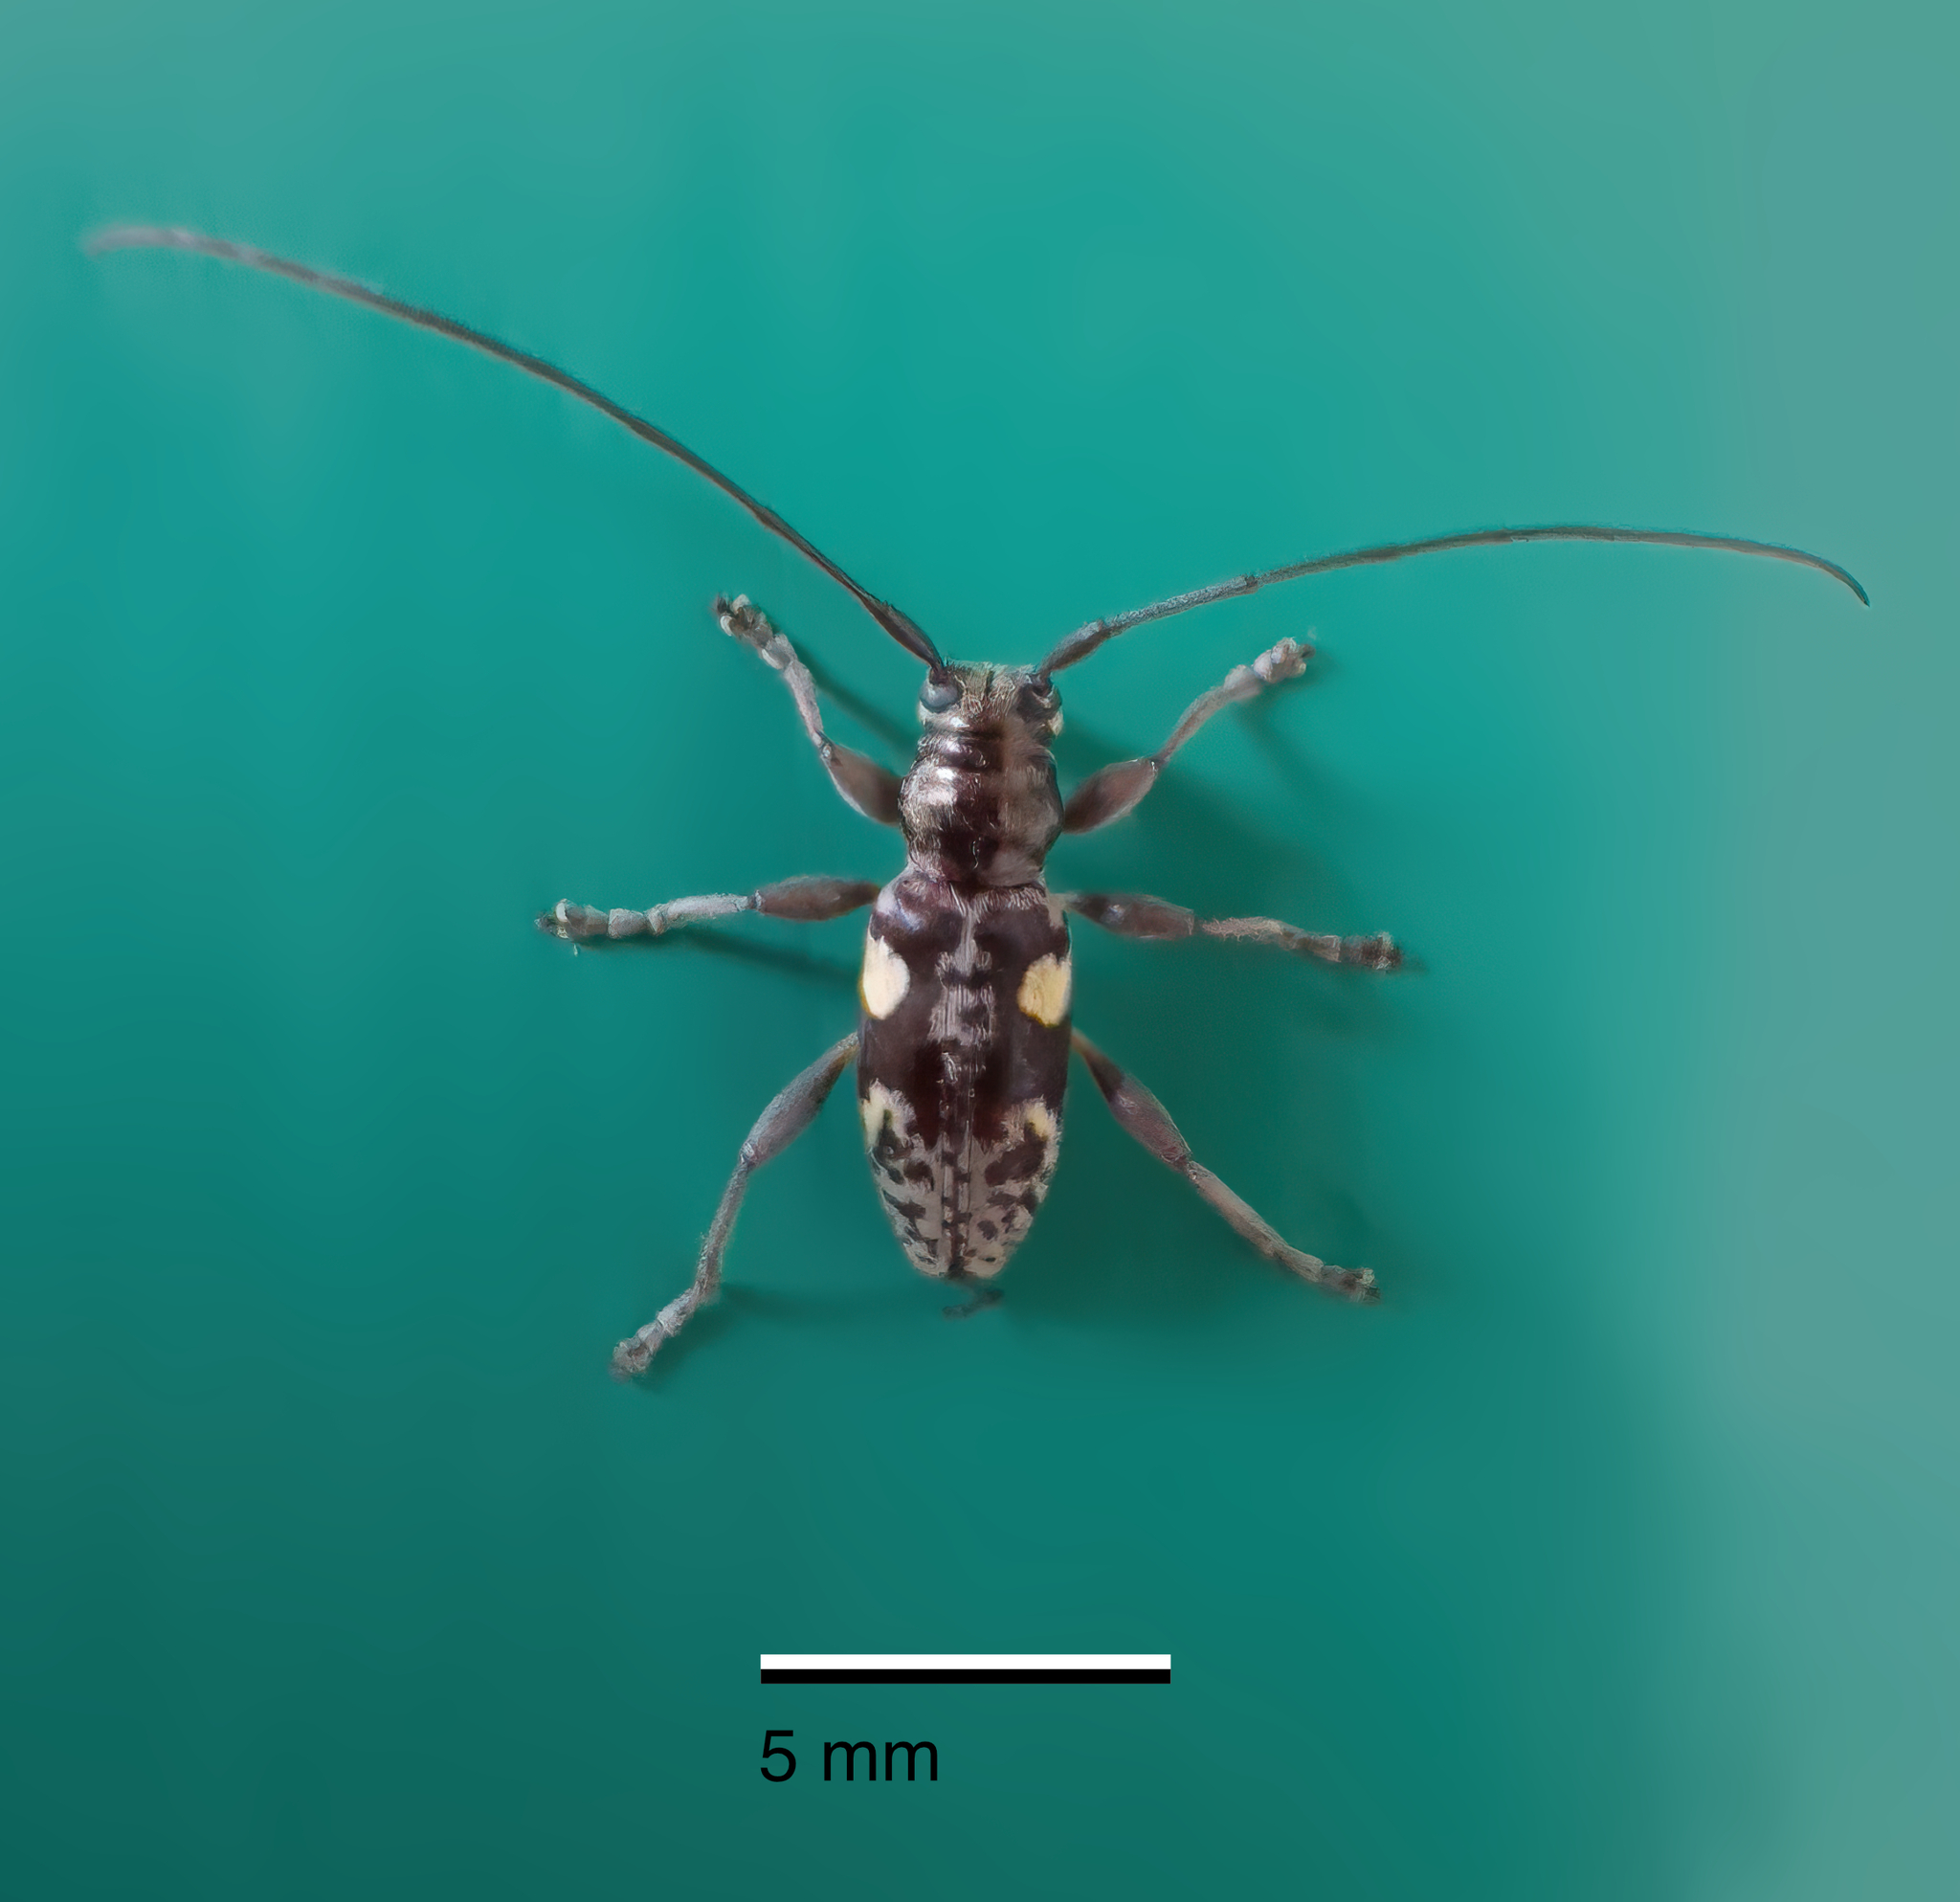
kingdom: Animalia
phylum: Arthropoda
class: Insecta
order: Coleoptera
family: Cerambycidae
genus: Stenellipsis
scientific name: Stenellipsis bimaculata
